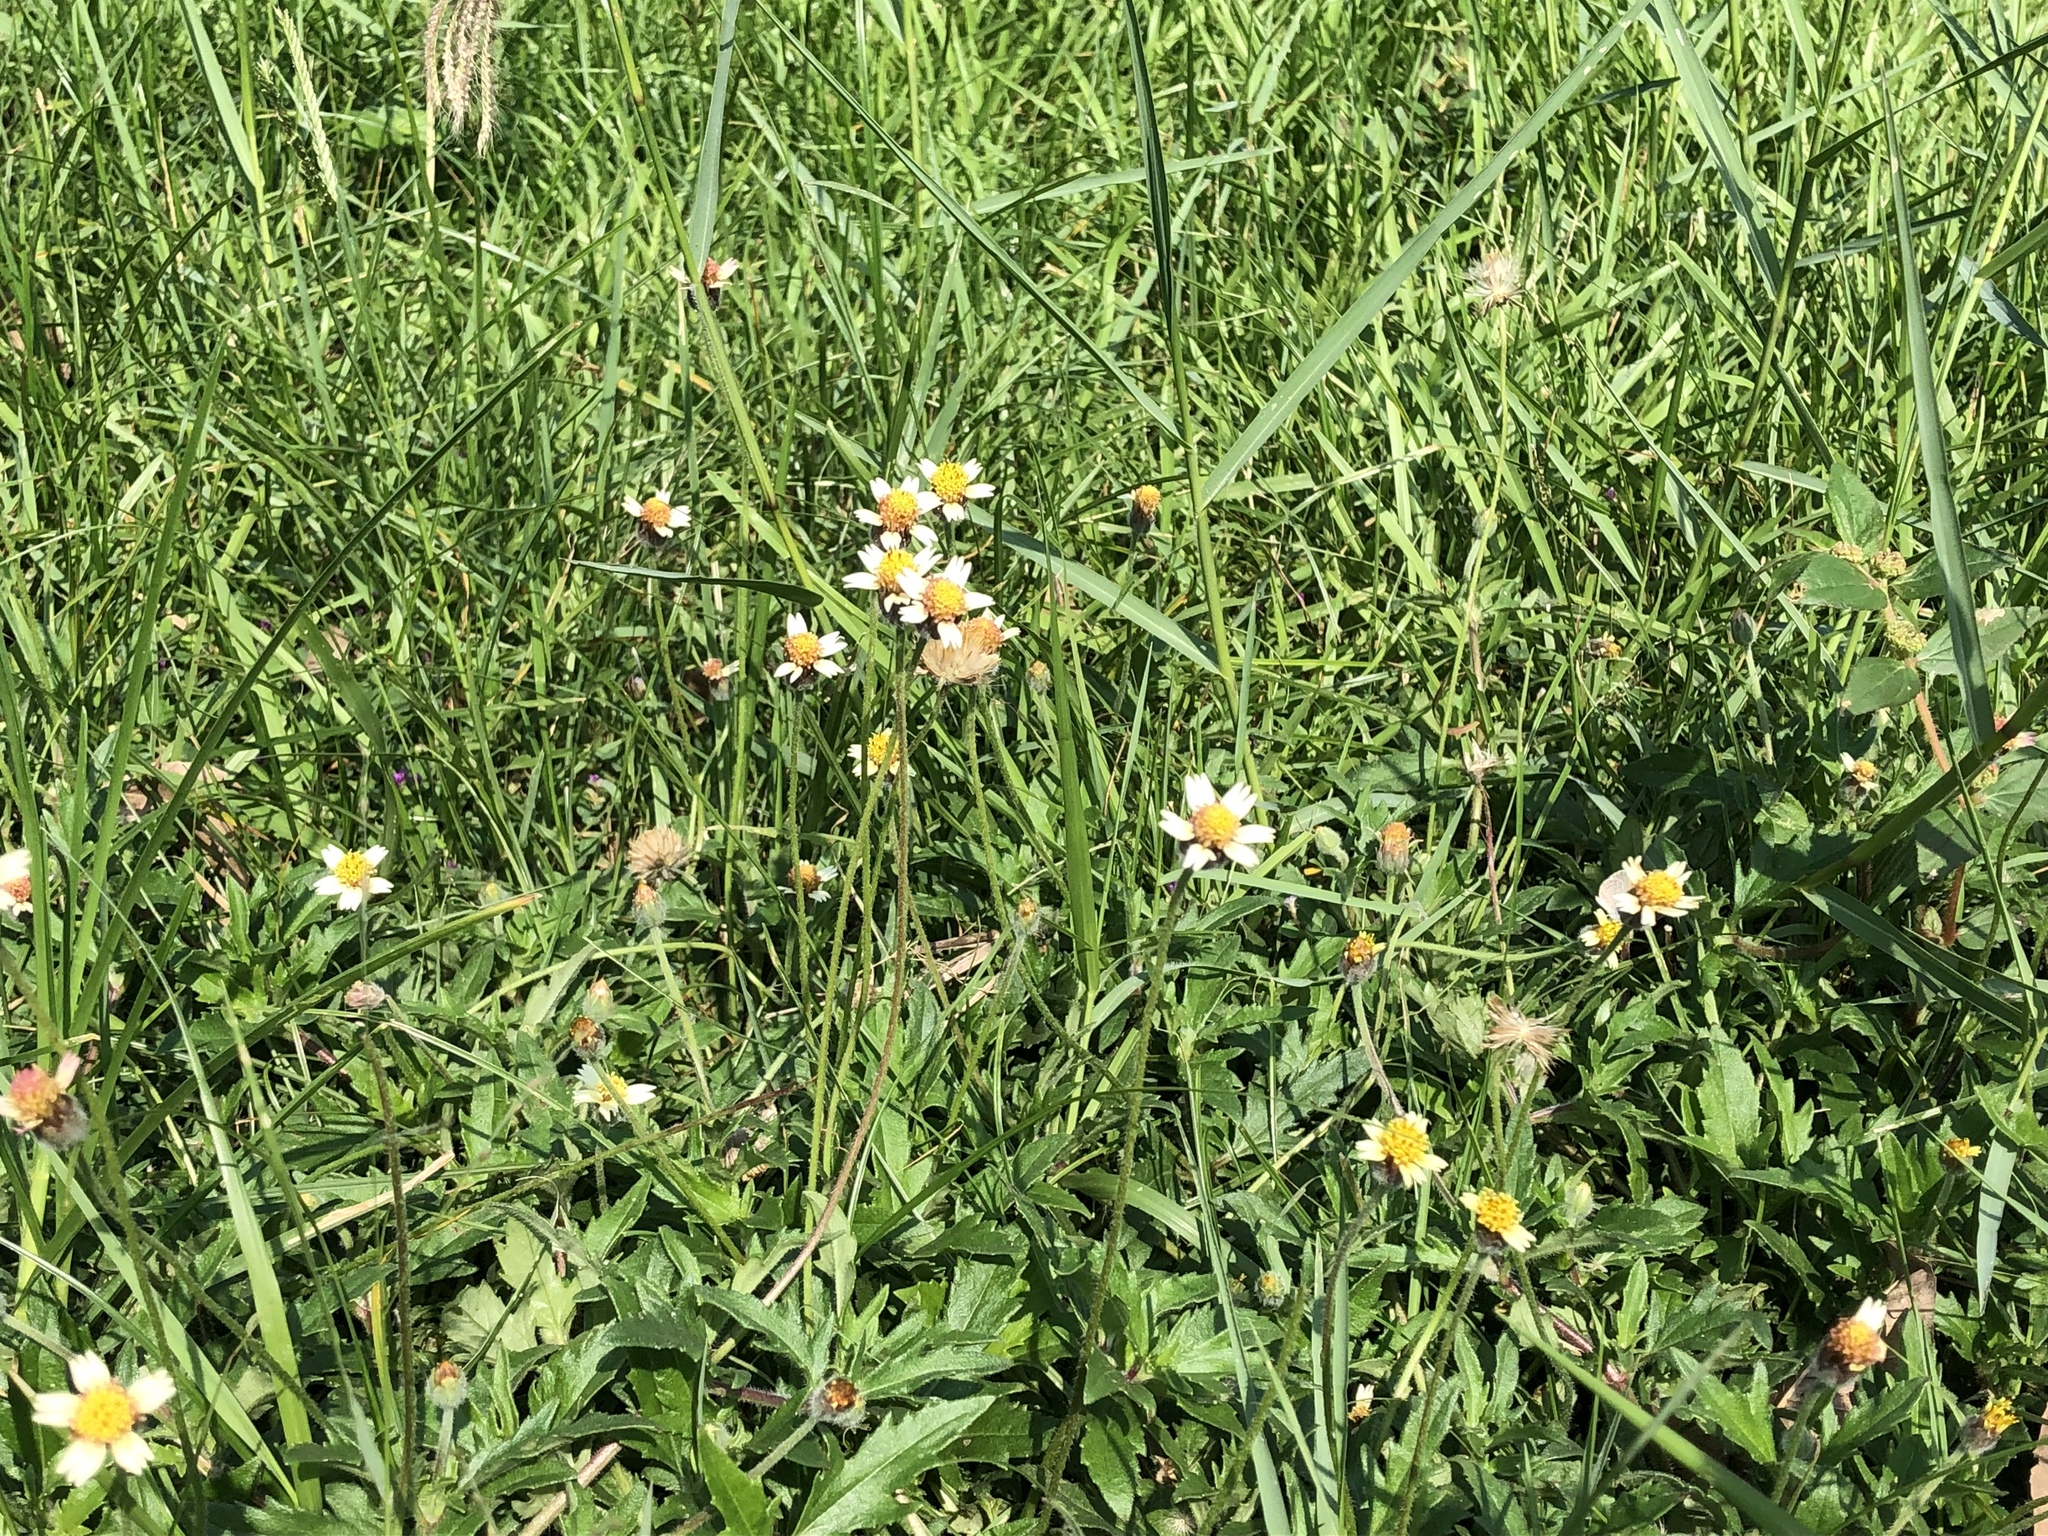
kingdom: Plantae
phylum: Tracheophyta
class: Magnoliopsida
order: Asterales
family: Asteraceae
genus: Tridax
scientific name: Tridax procumbens
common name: Coatbuttons
